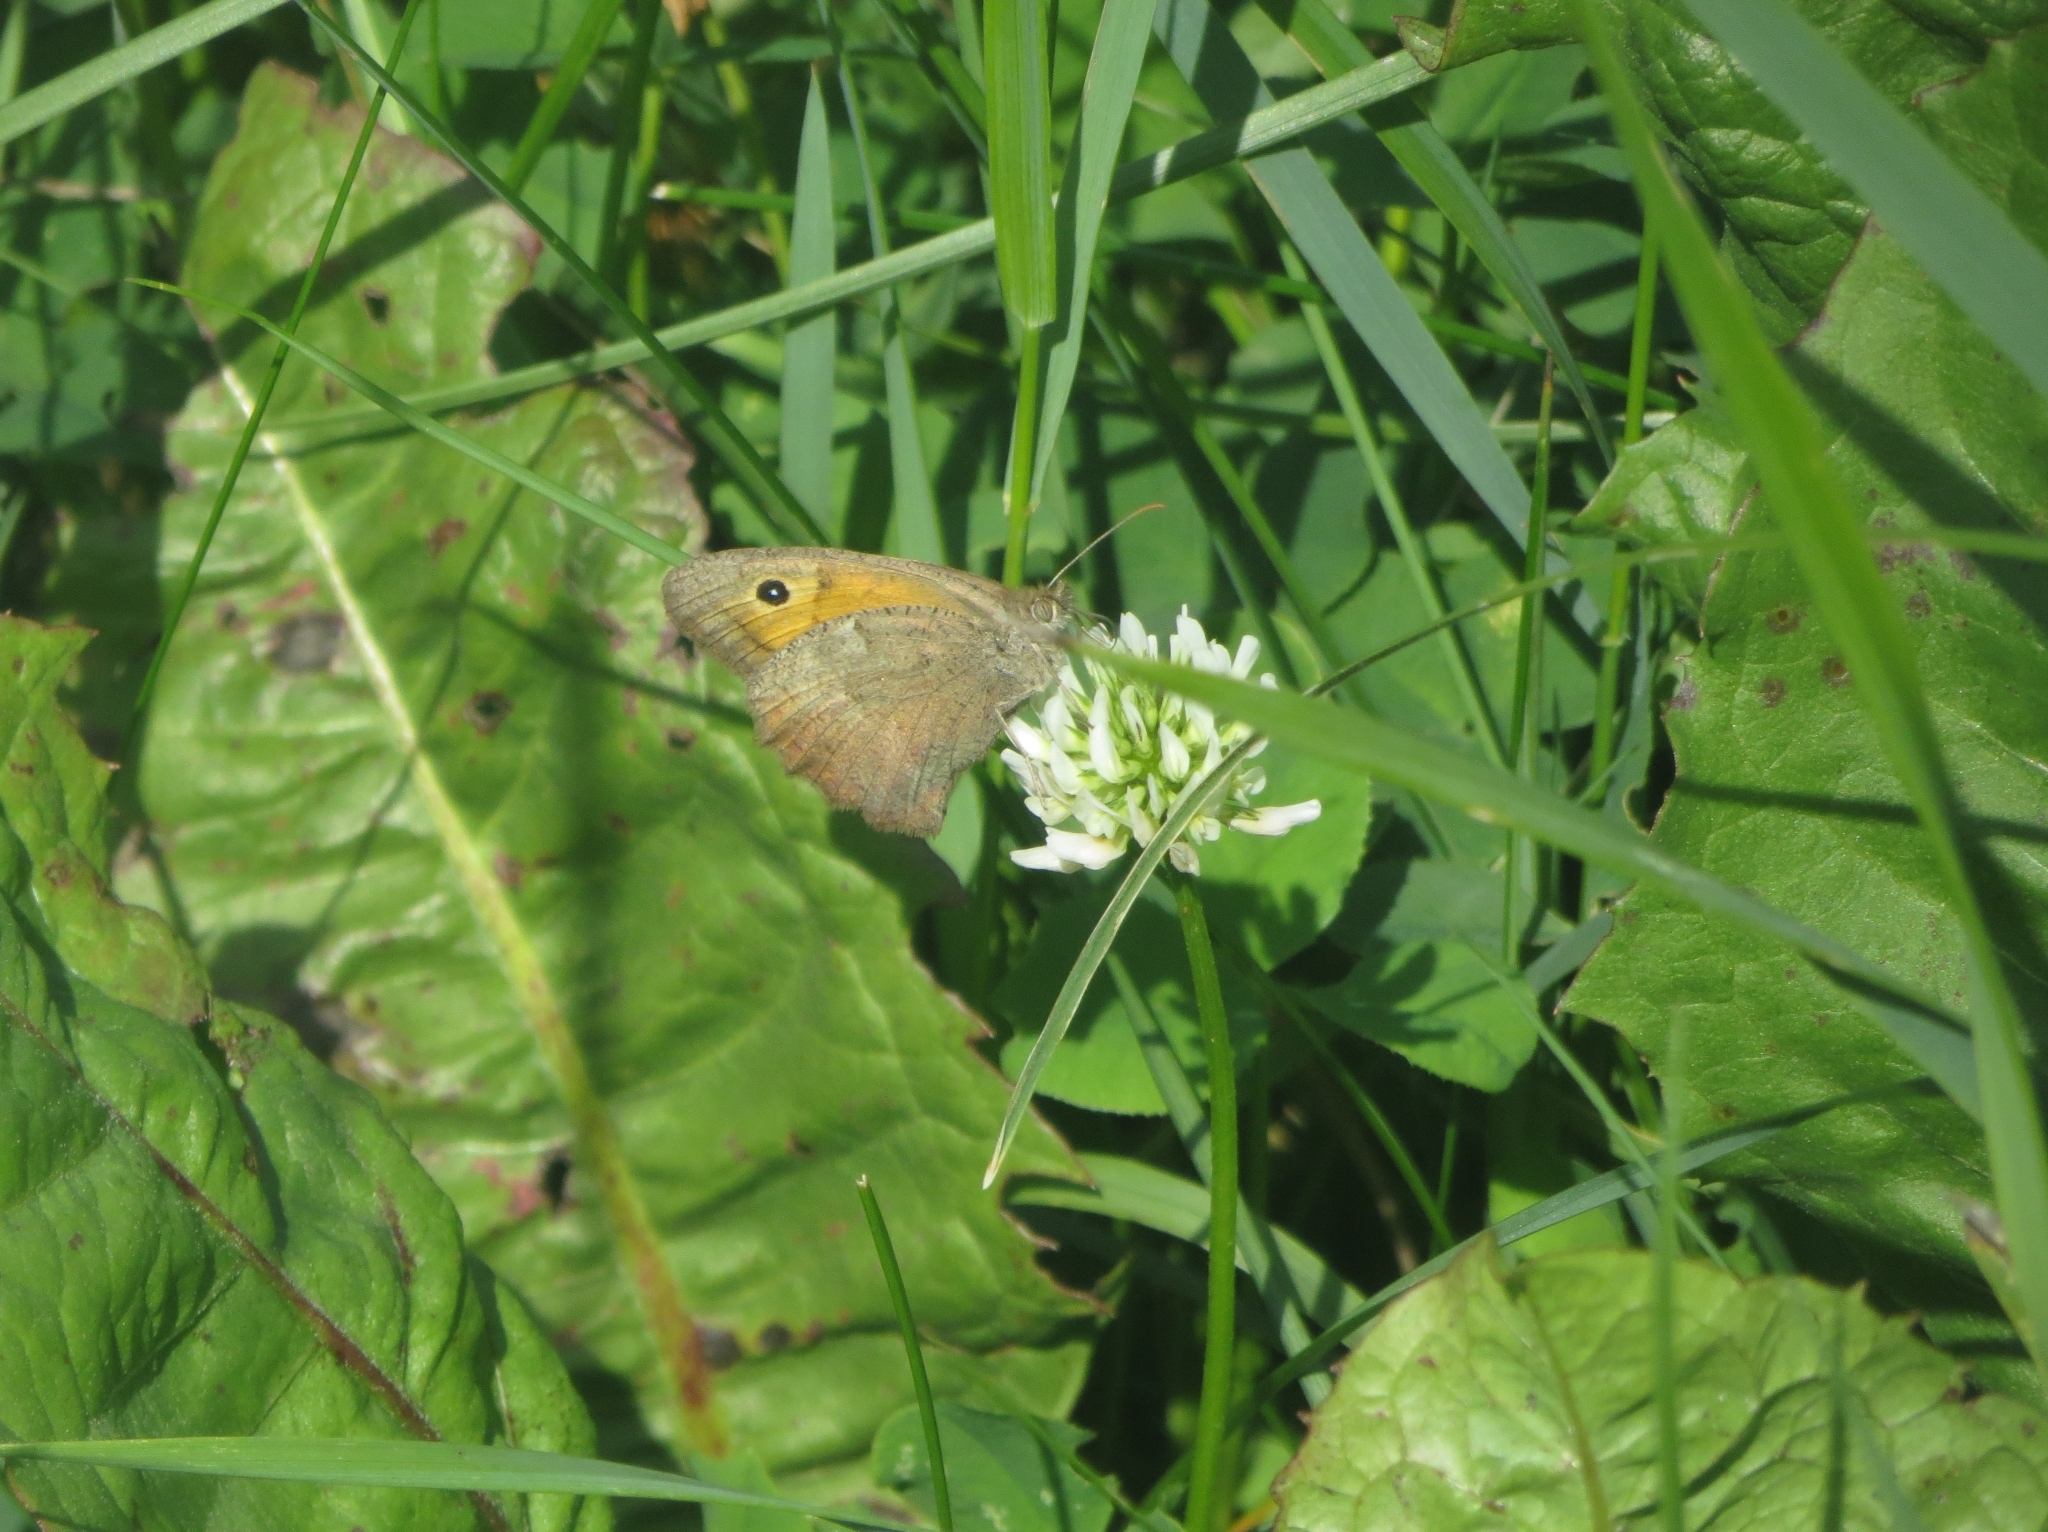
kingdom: Animalia
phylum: Arthropoda
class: Insecta
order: Lepidoptera
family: Nymphalidae
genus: Hyponephele
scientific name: Hyponephele lycaon
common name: Dusky meadow brown
